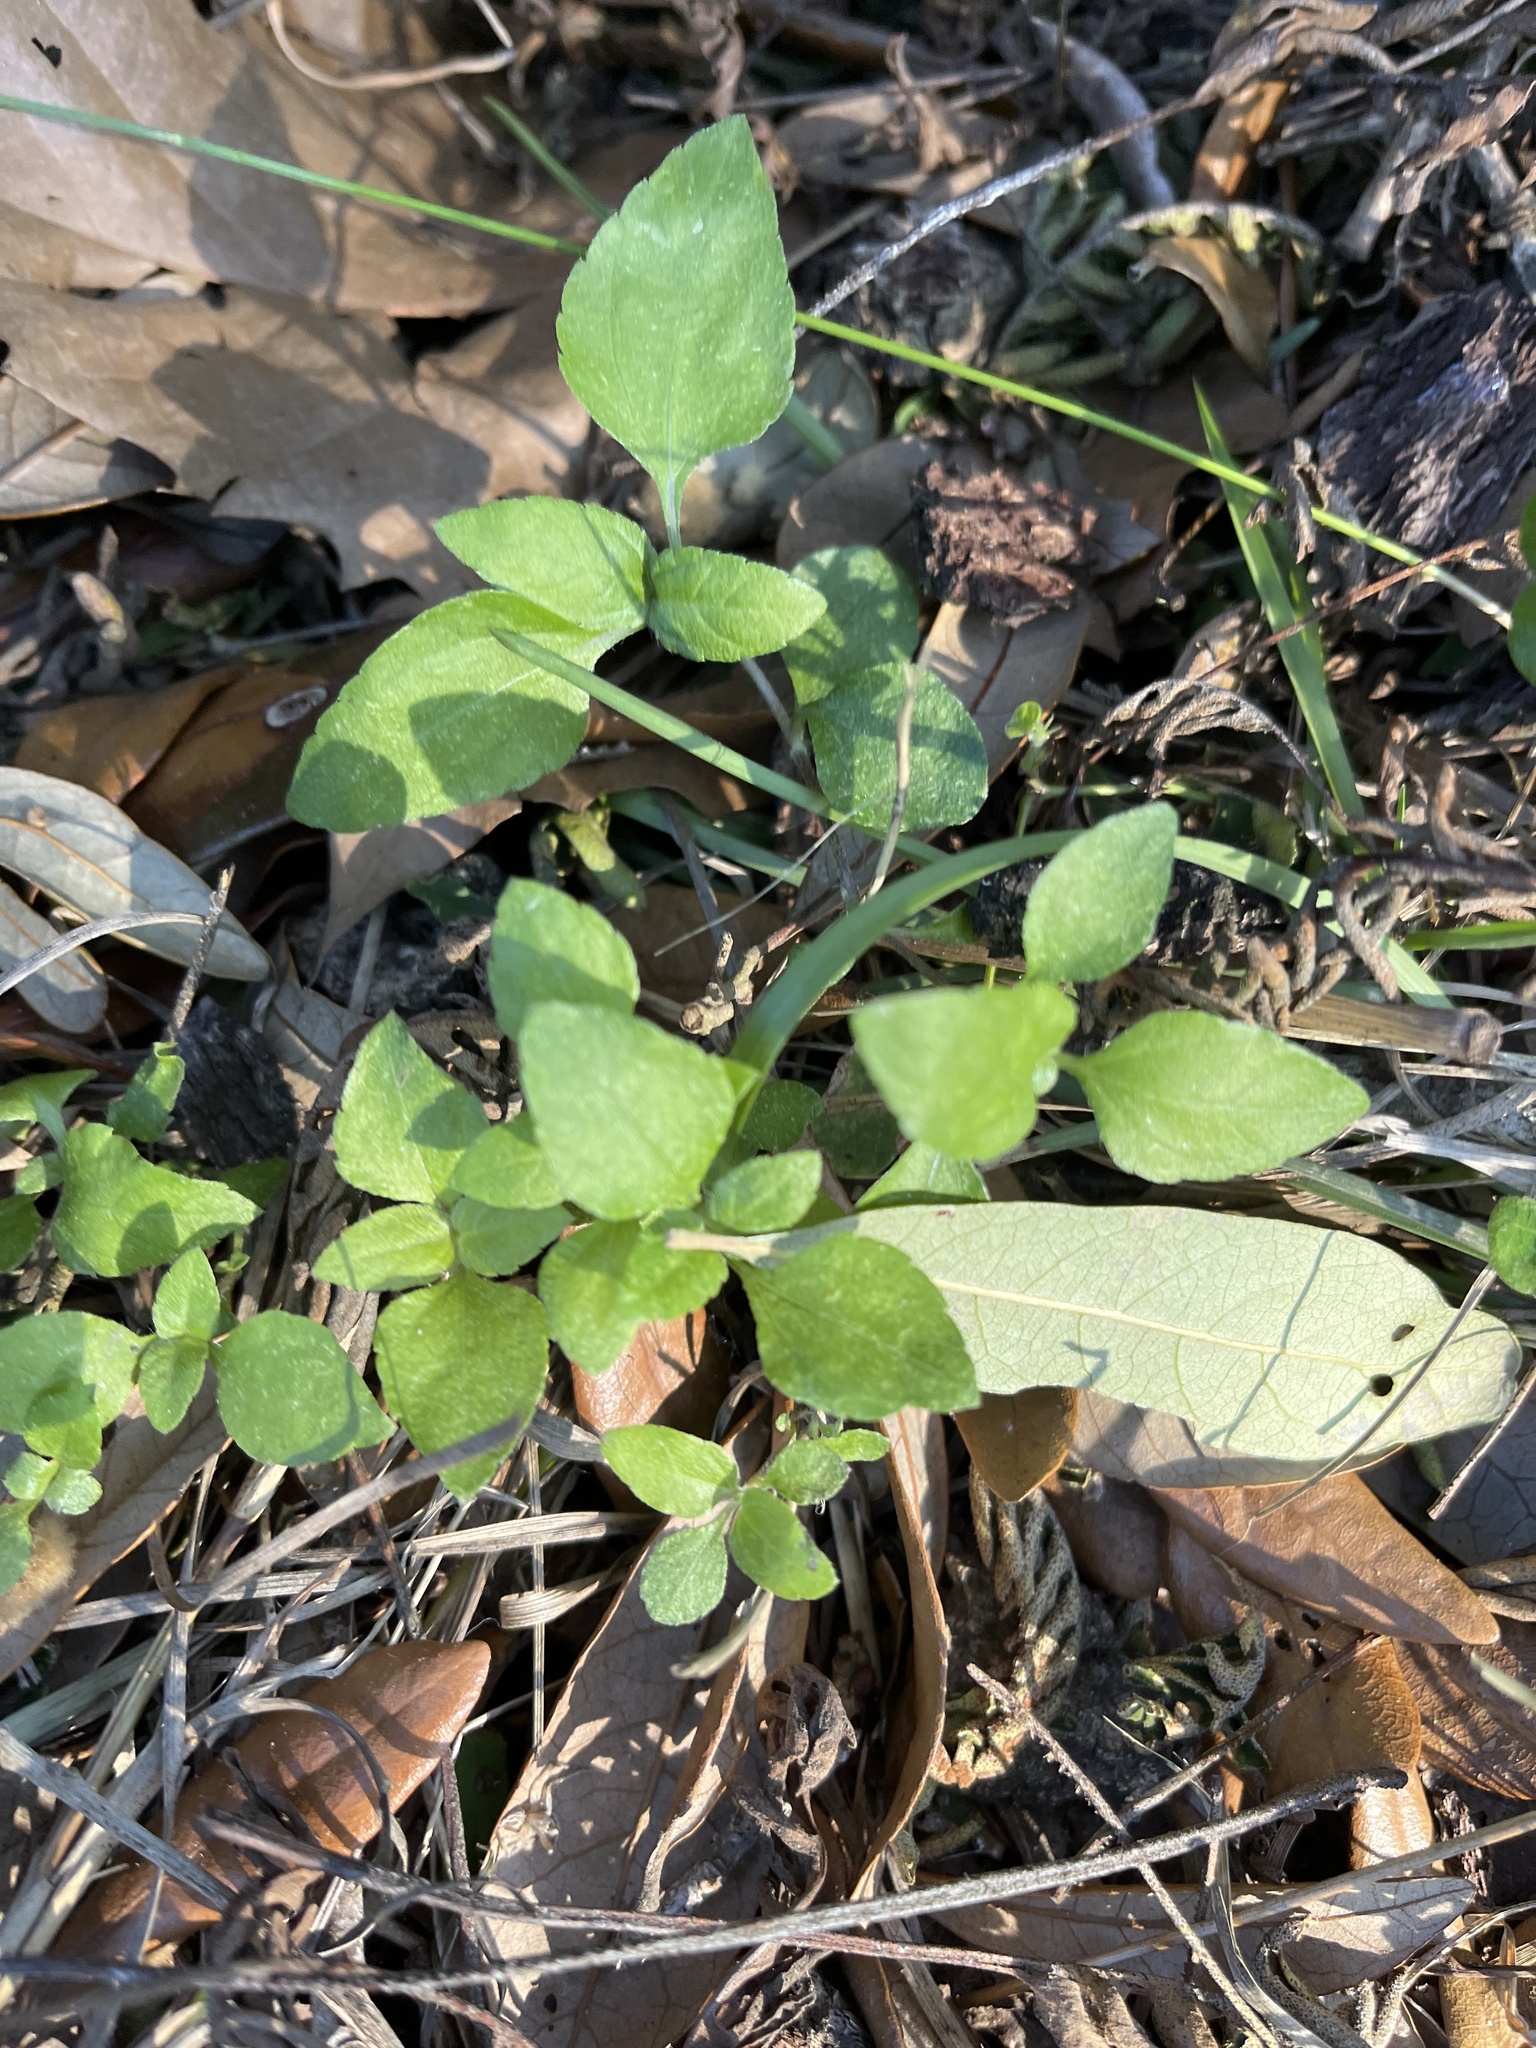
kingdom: Plantae
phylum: Tracheophyta
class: Magnoliopsida
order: Asterales
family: Asteraceae
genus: Calyptocarpus
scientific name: Calyptocarpus vialis
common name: Straggler daisy
